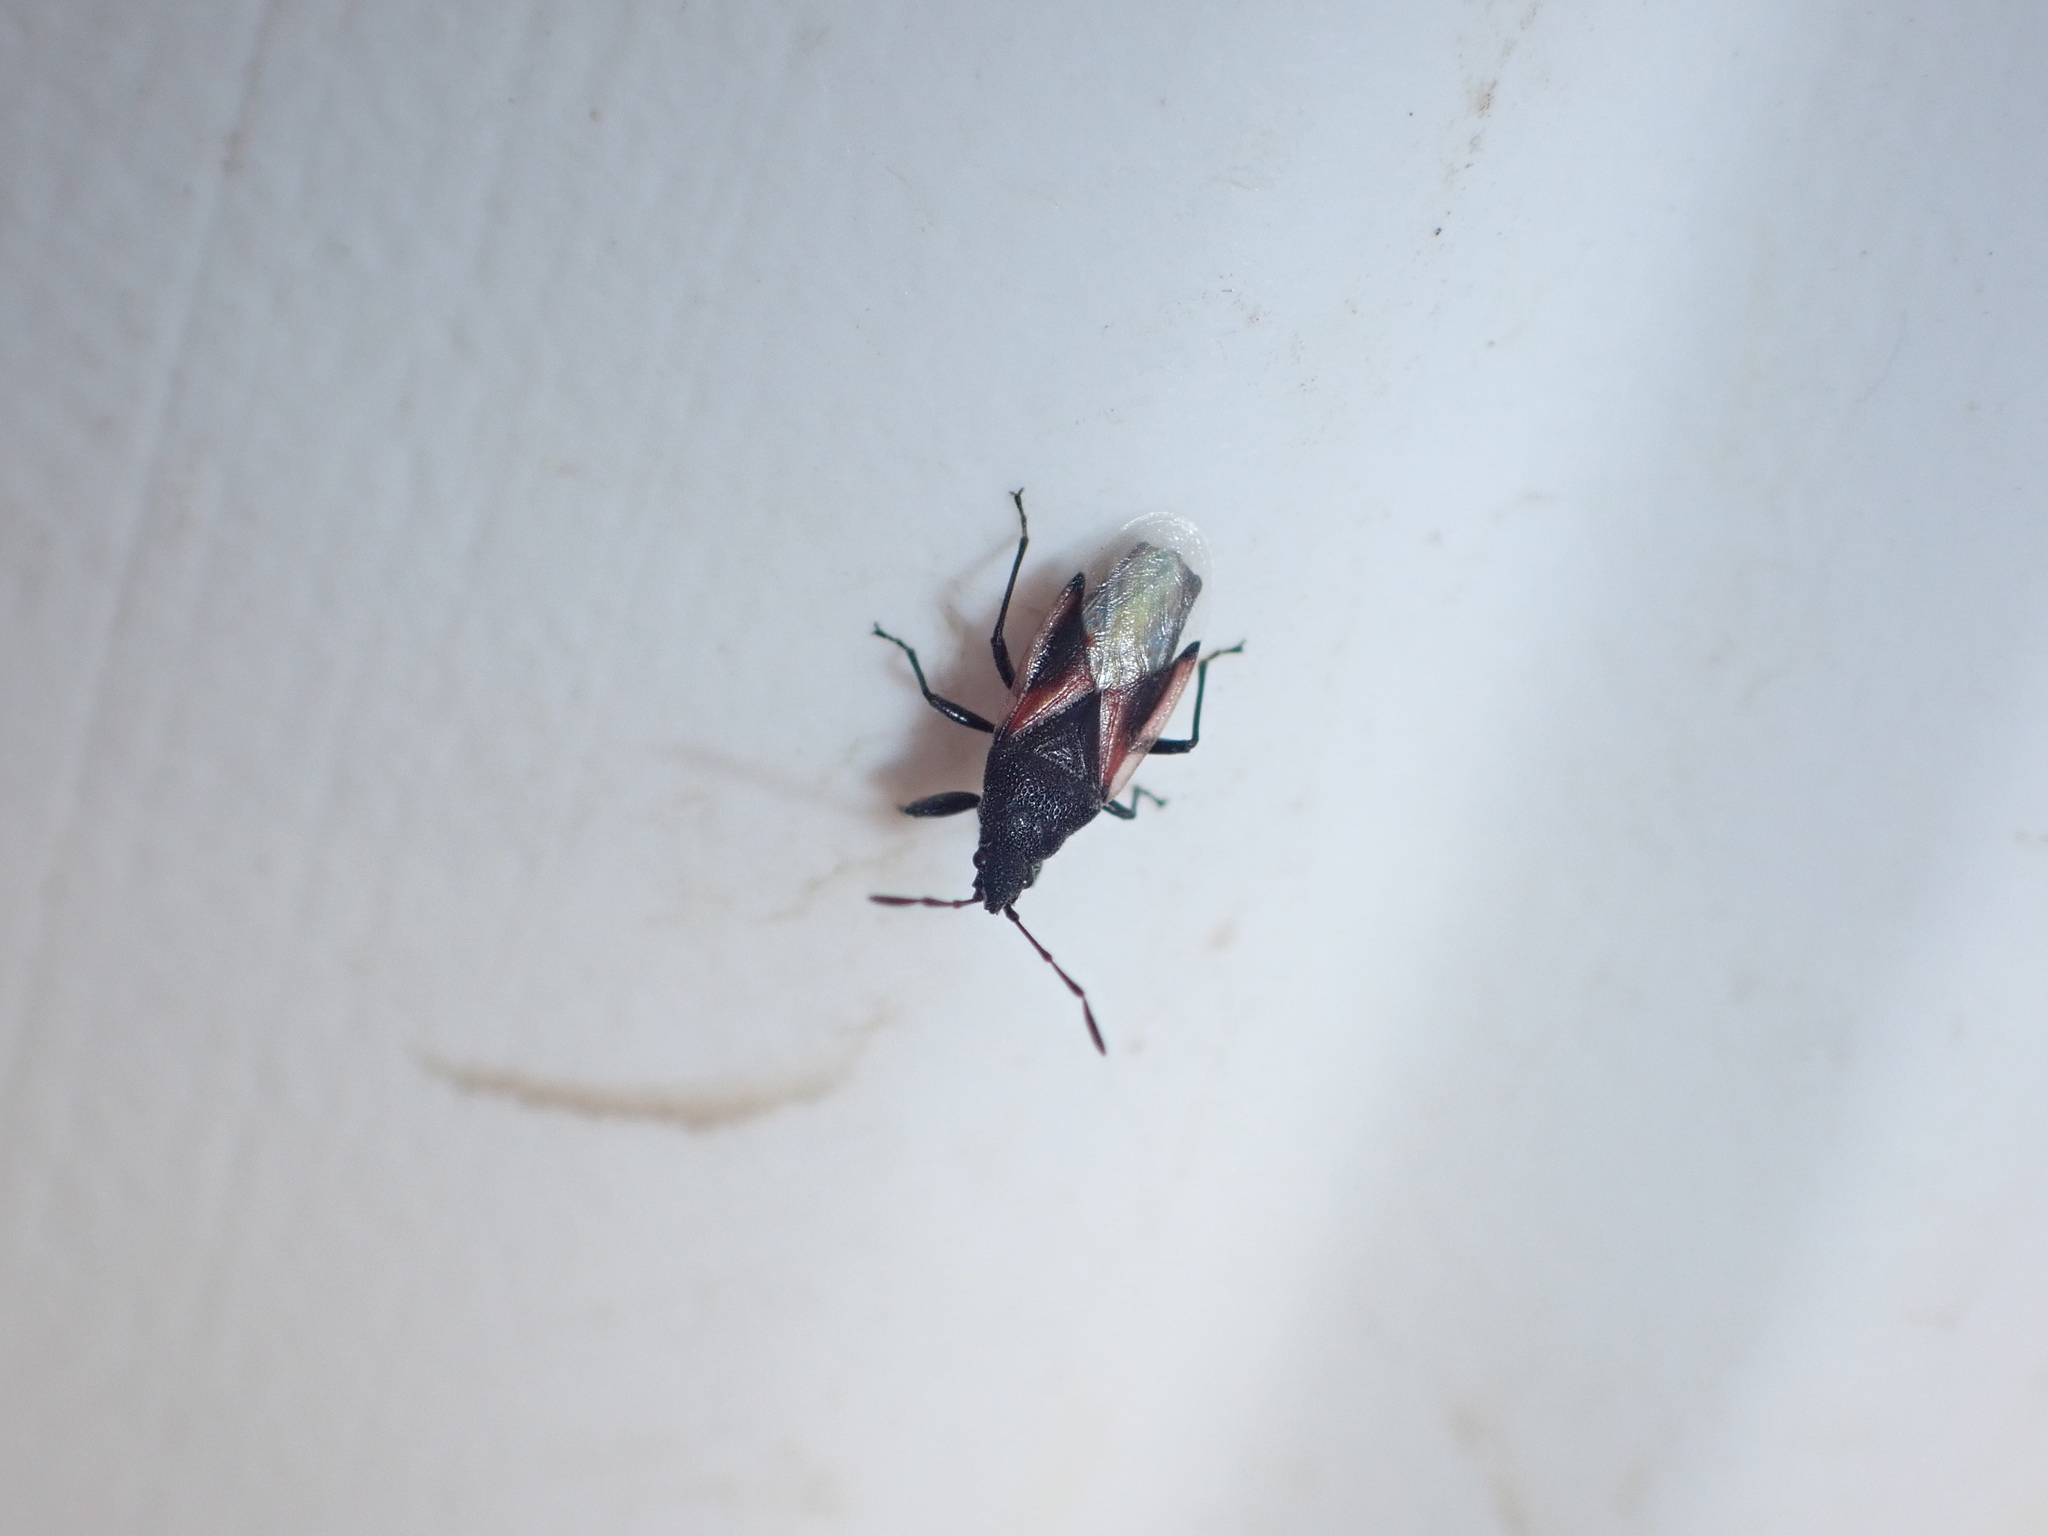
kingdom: Animalia
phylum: Arthropoda
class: Insecta
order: Hemiptera
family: Oxycarenidae
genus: Oxycarenus
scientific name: Oxycarenus lavaterae
